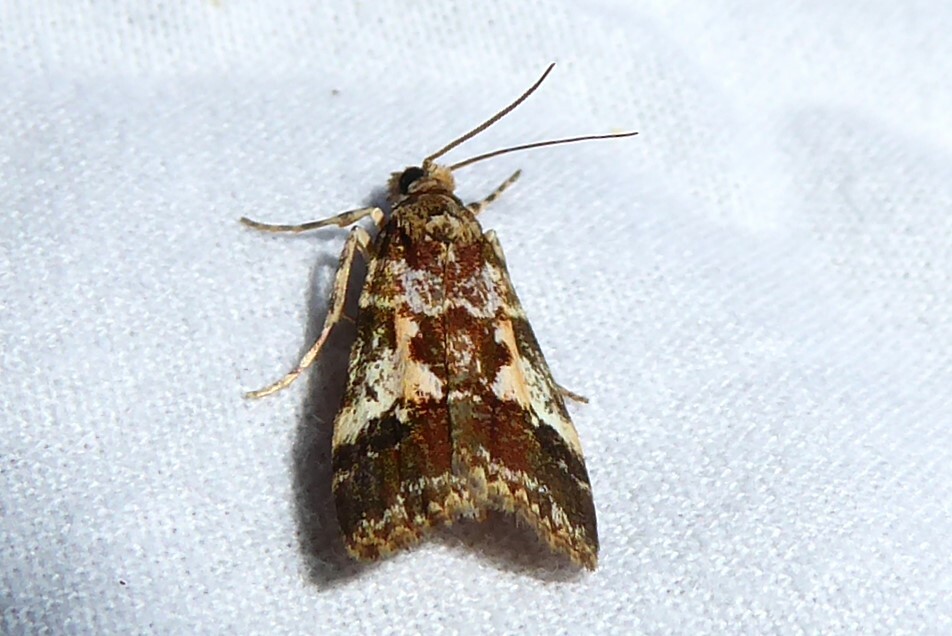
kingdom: Animalia
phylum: Arthropoda
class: Insecta
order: Lepidoptera
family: Crambidae
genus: Eudonia
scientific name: Eudonia characta
